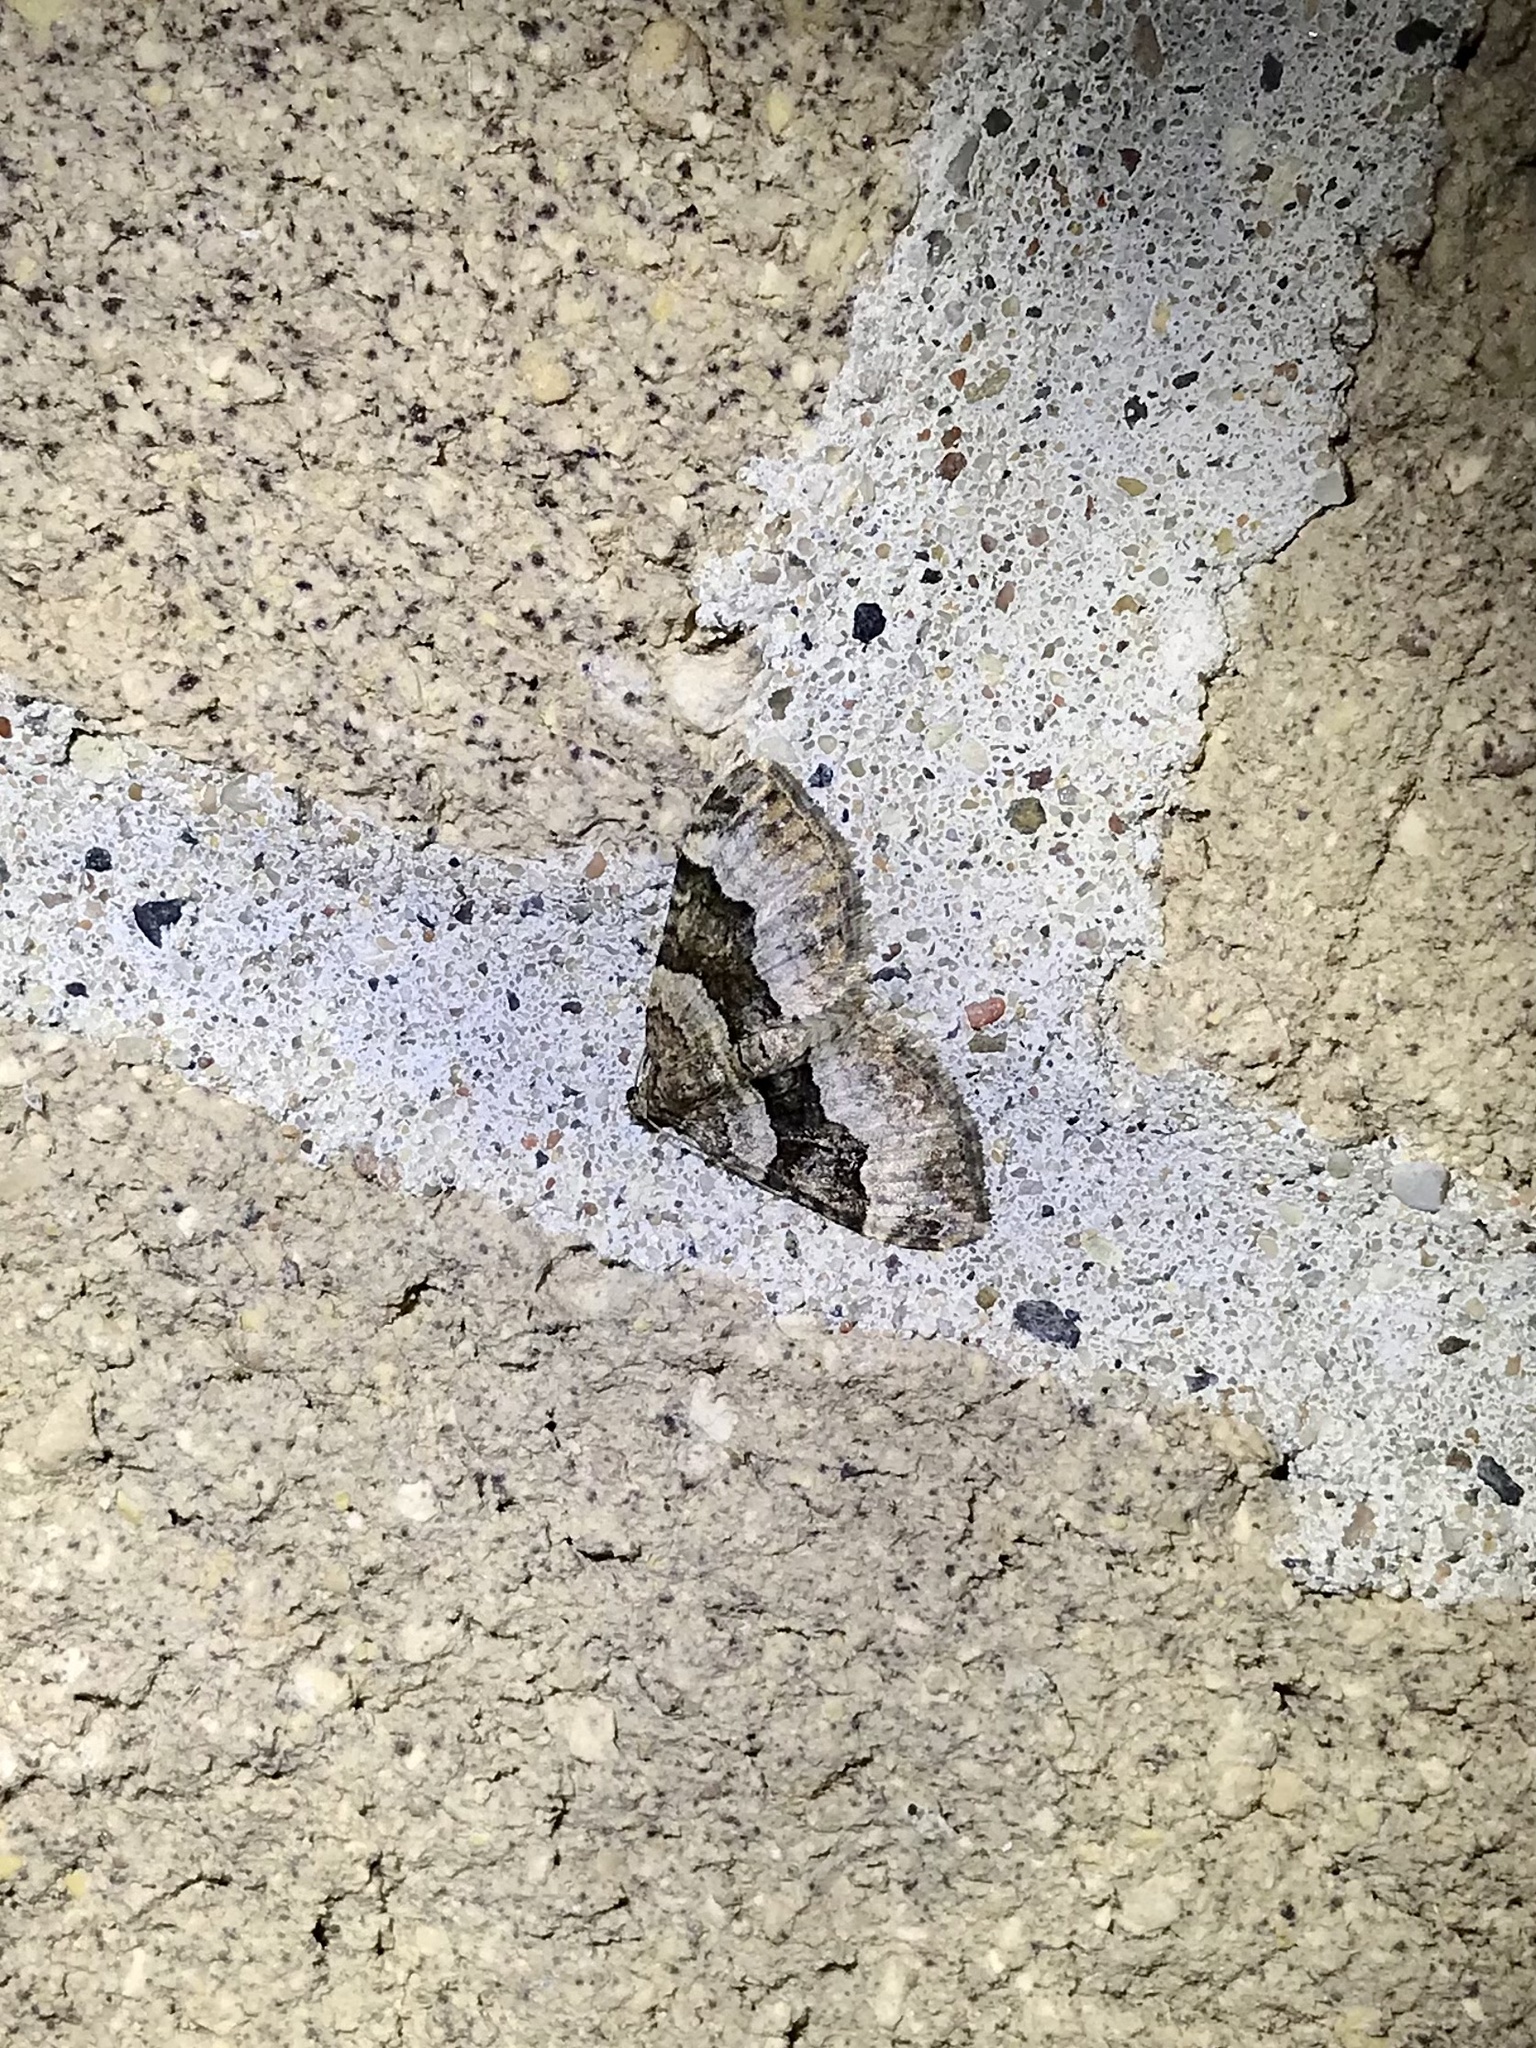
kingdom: Animalia
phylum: Arthropoda
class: Insecta
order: Lepidoptera
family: Geometridae
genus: Xanthorhoe
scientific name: Xanthorhoe lacustrata
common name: Toothed brown carpet
